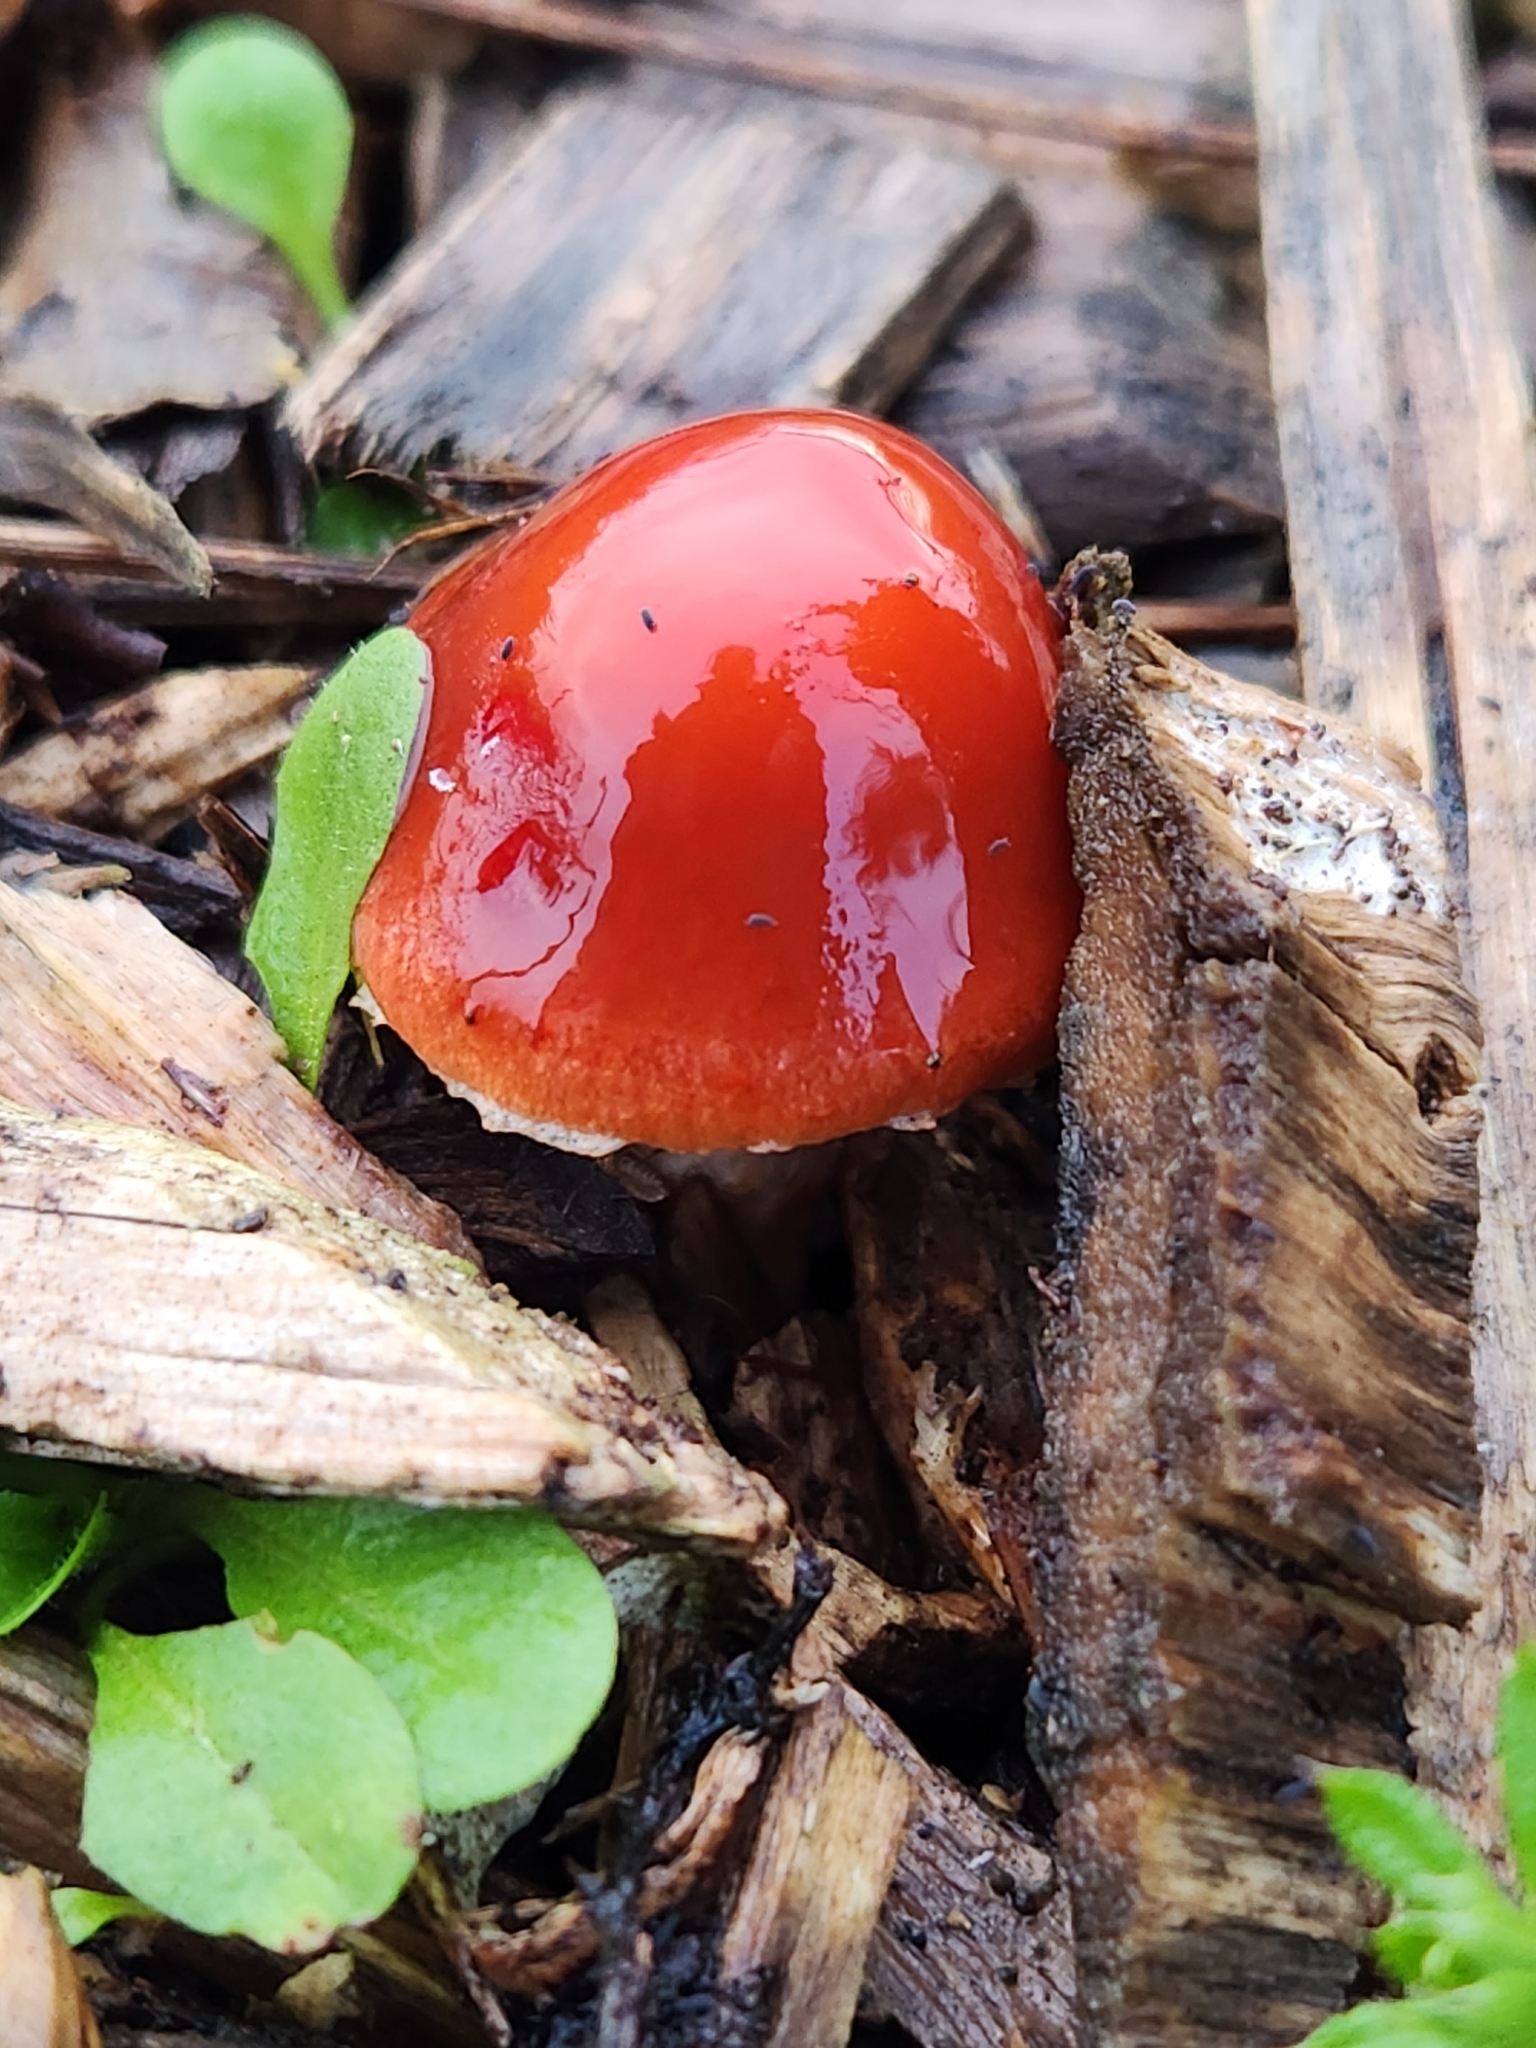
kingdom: Fungi
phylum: Basidiomycota
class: Agaricomycetes
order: Agaricales
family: Strophariaceae
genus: Leratiomyces
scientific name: Leratiomyces ceres
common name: Redlead roundhead
